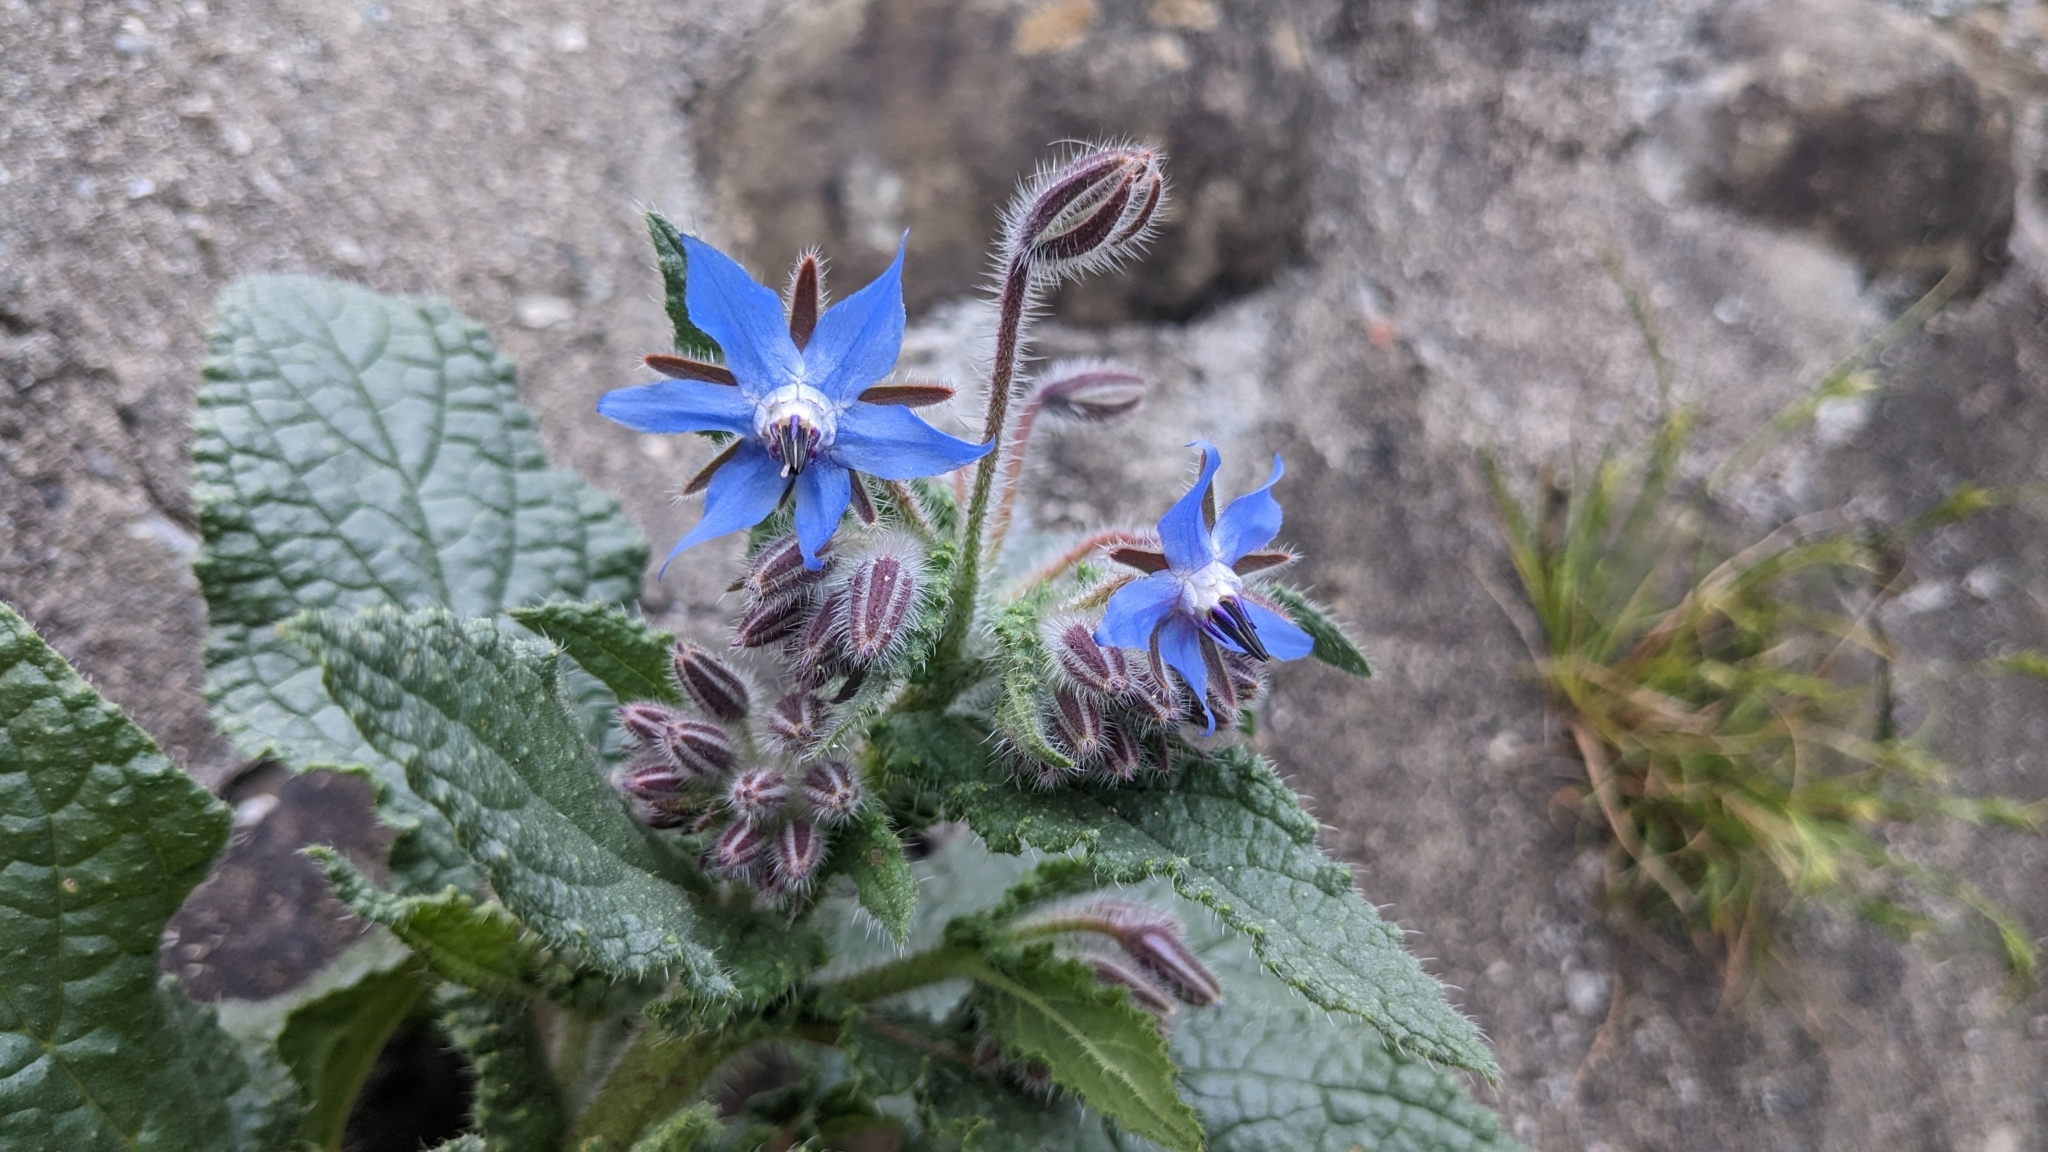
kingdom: Plantae
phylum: Tracheophyta
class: Magnoliopsida
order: Boraginales
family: Boraginaceae
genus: Borago
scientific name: Borago officinalis
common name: Borage
